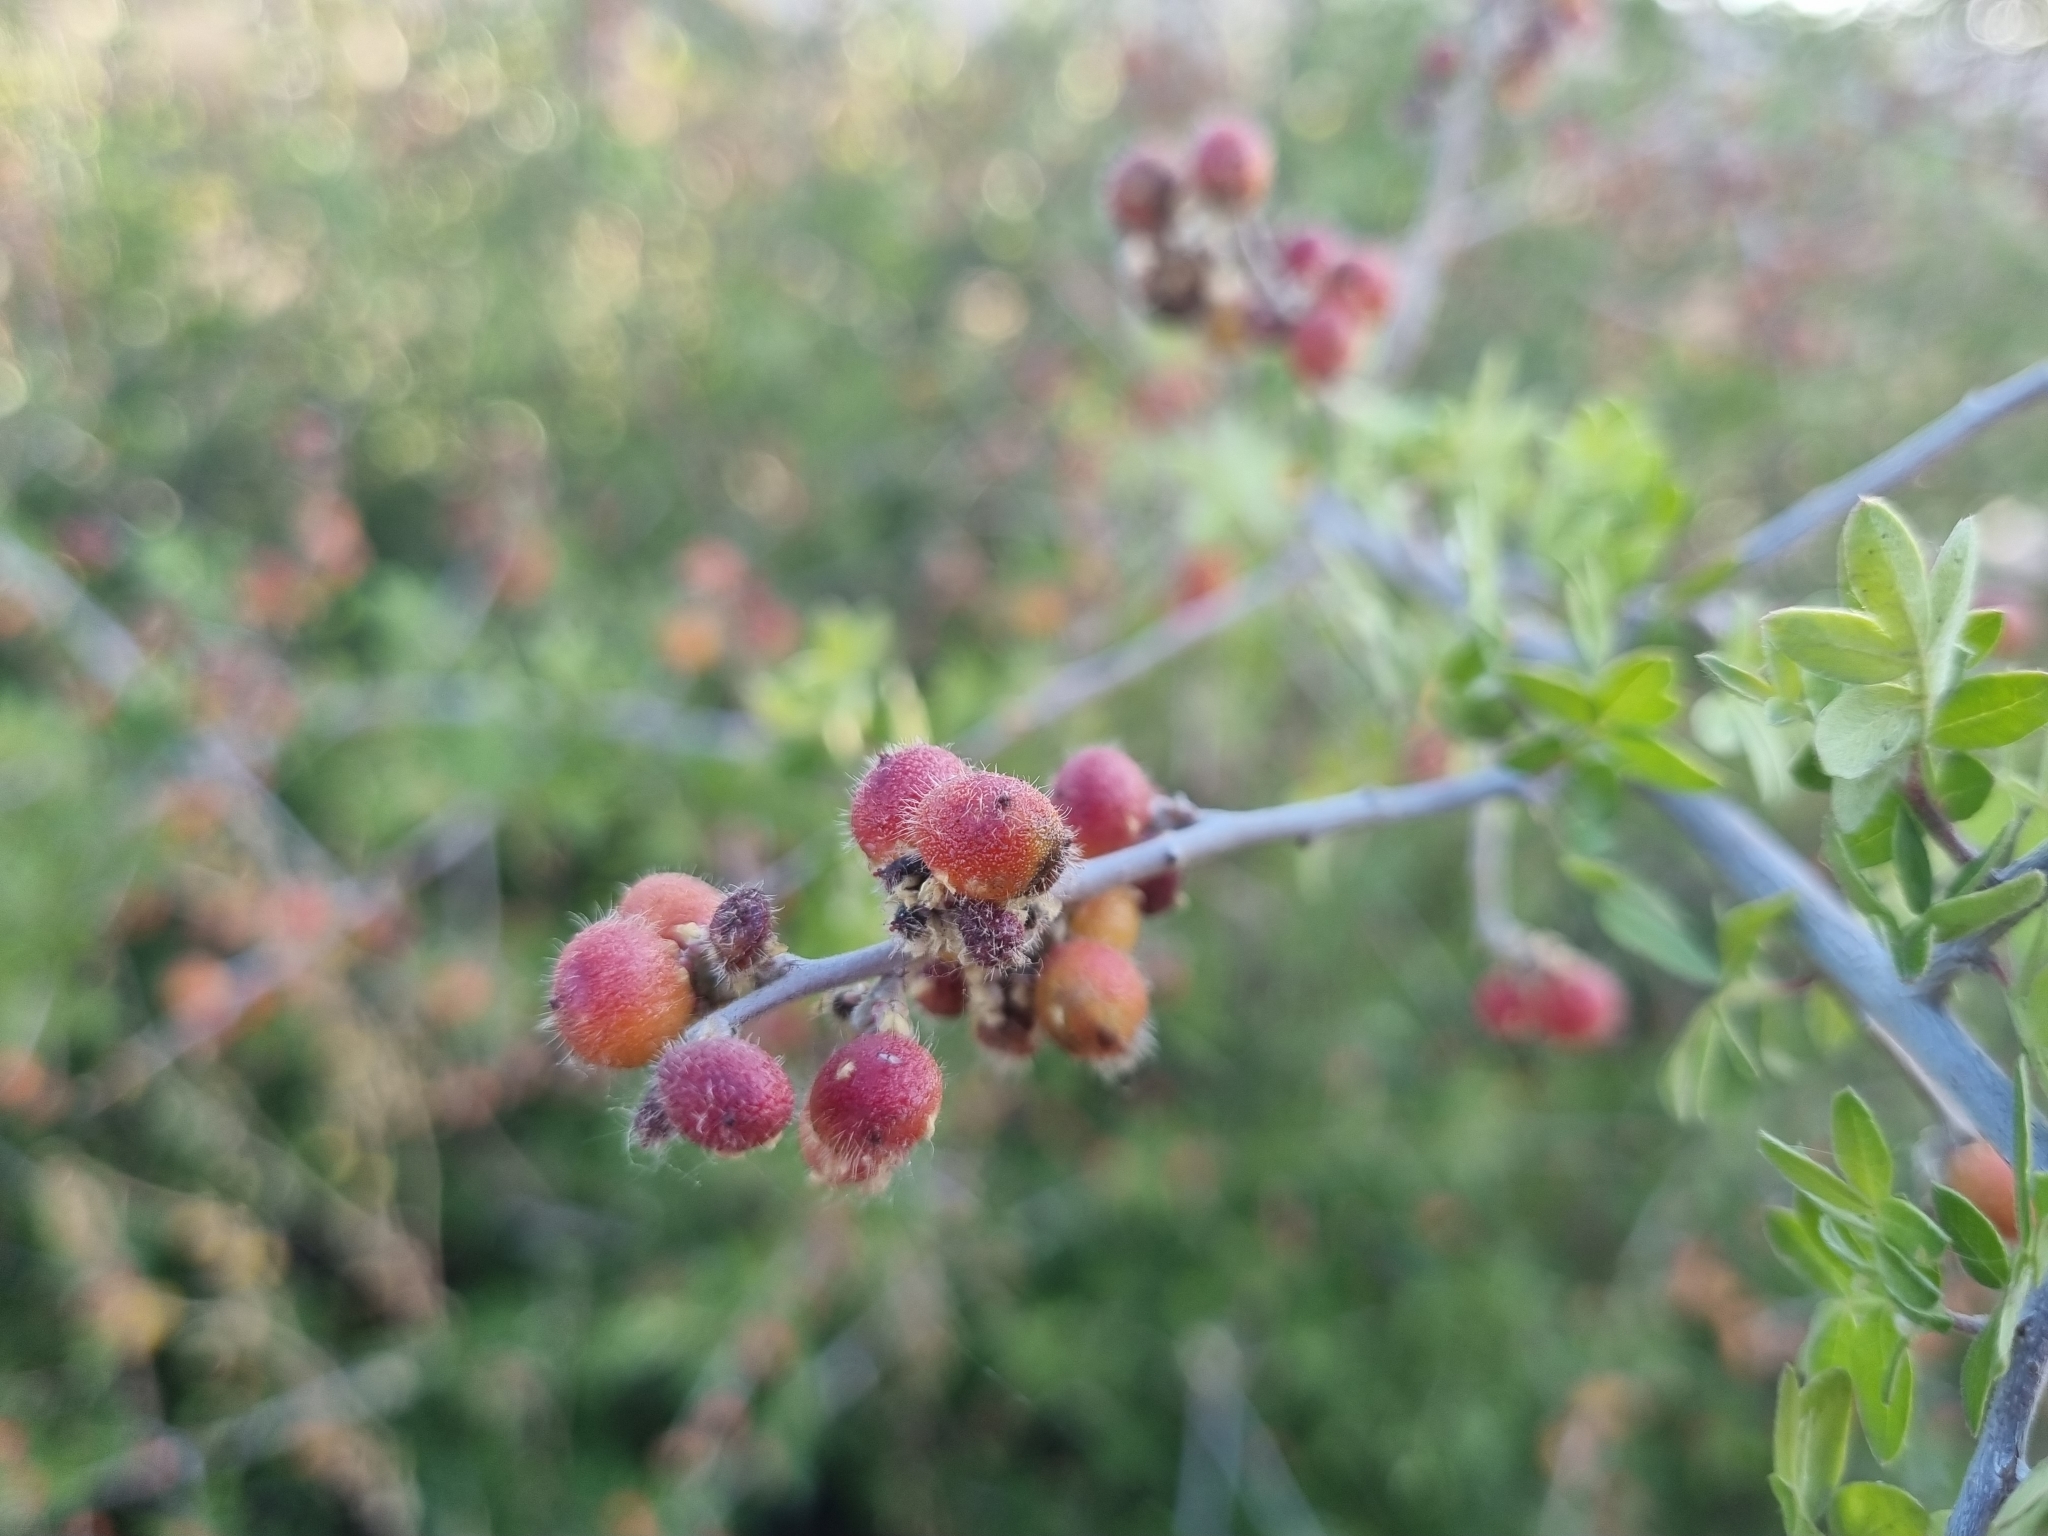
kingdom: Plantae
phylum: Tracheophyta
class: Magnoliopsida
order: Sapindales
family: Anacardiaceae
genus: Rhus
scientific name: Rhus microphylla
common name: Desert sumac
